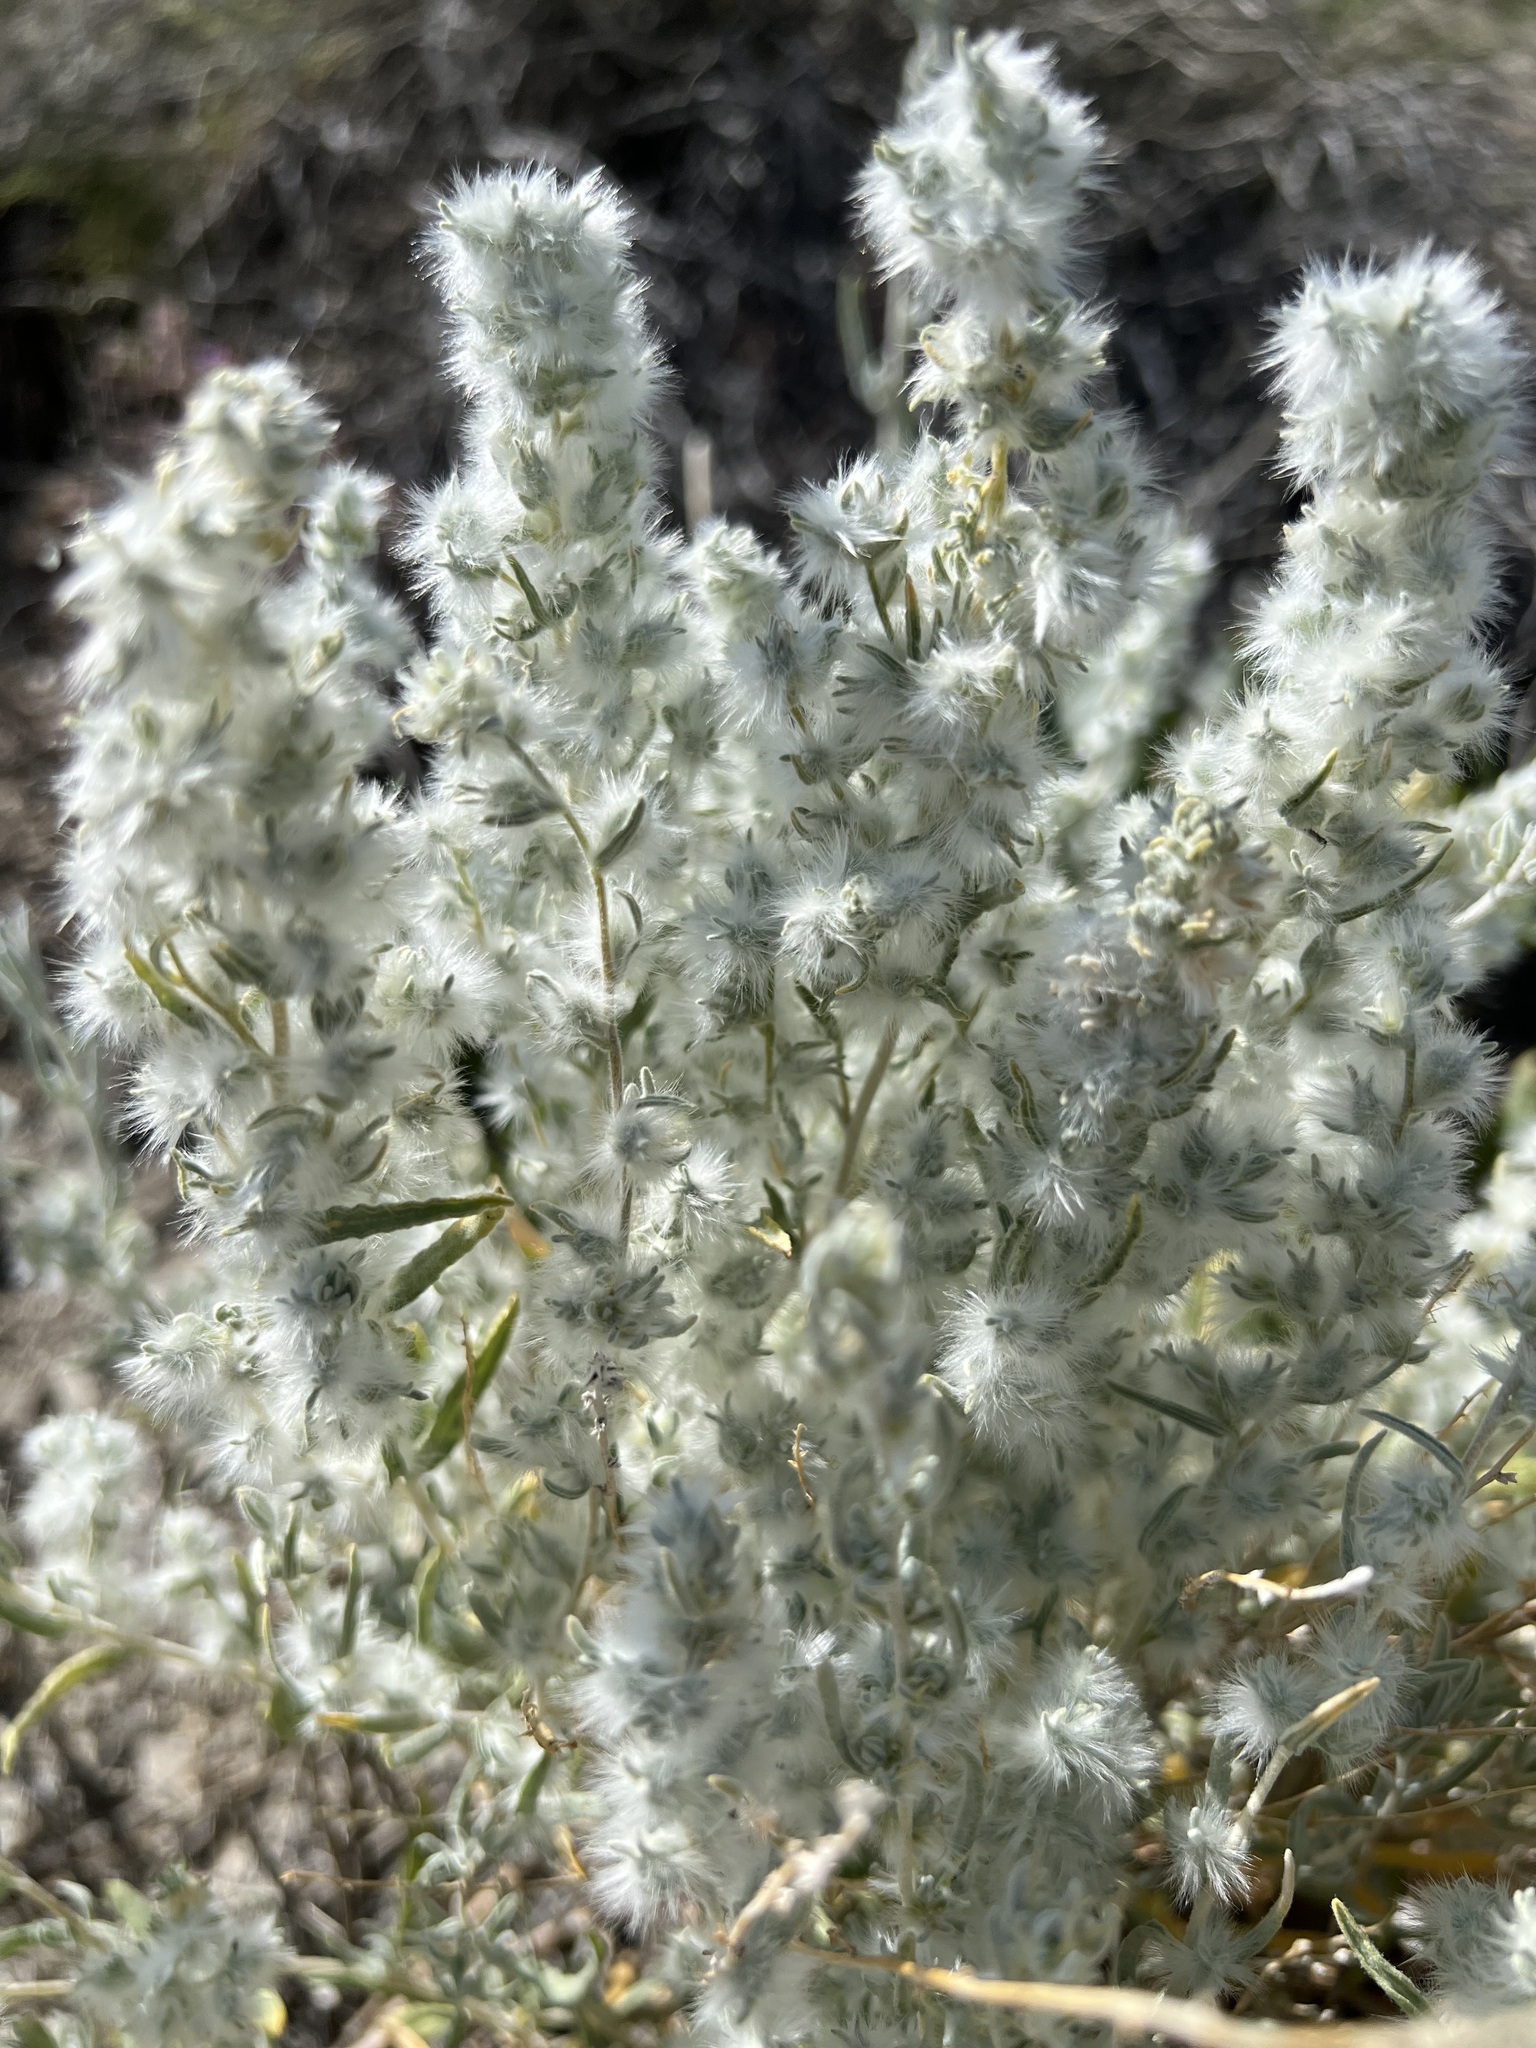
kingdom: Plantae
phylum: Tracheophyta
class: Magnoliopsida
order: Caryophyllales
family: Amaranthaceae
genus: Krascheninnikovia
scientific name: Krascheninnikovia lanata
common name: Winterfat
